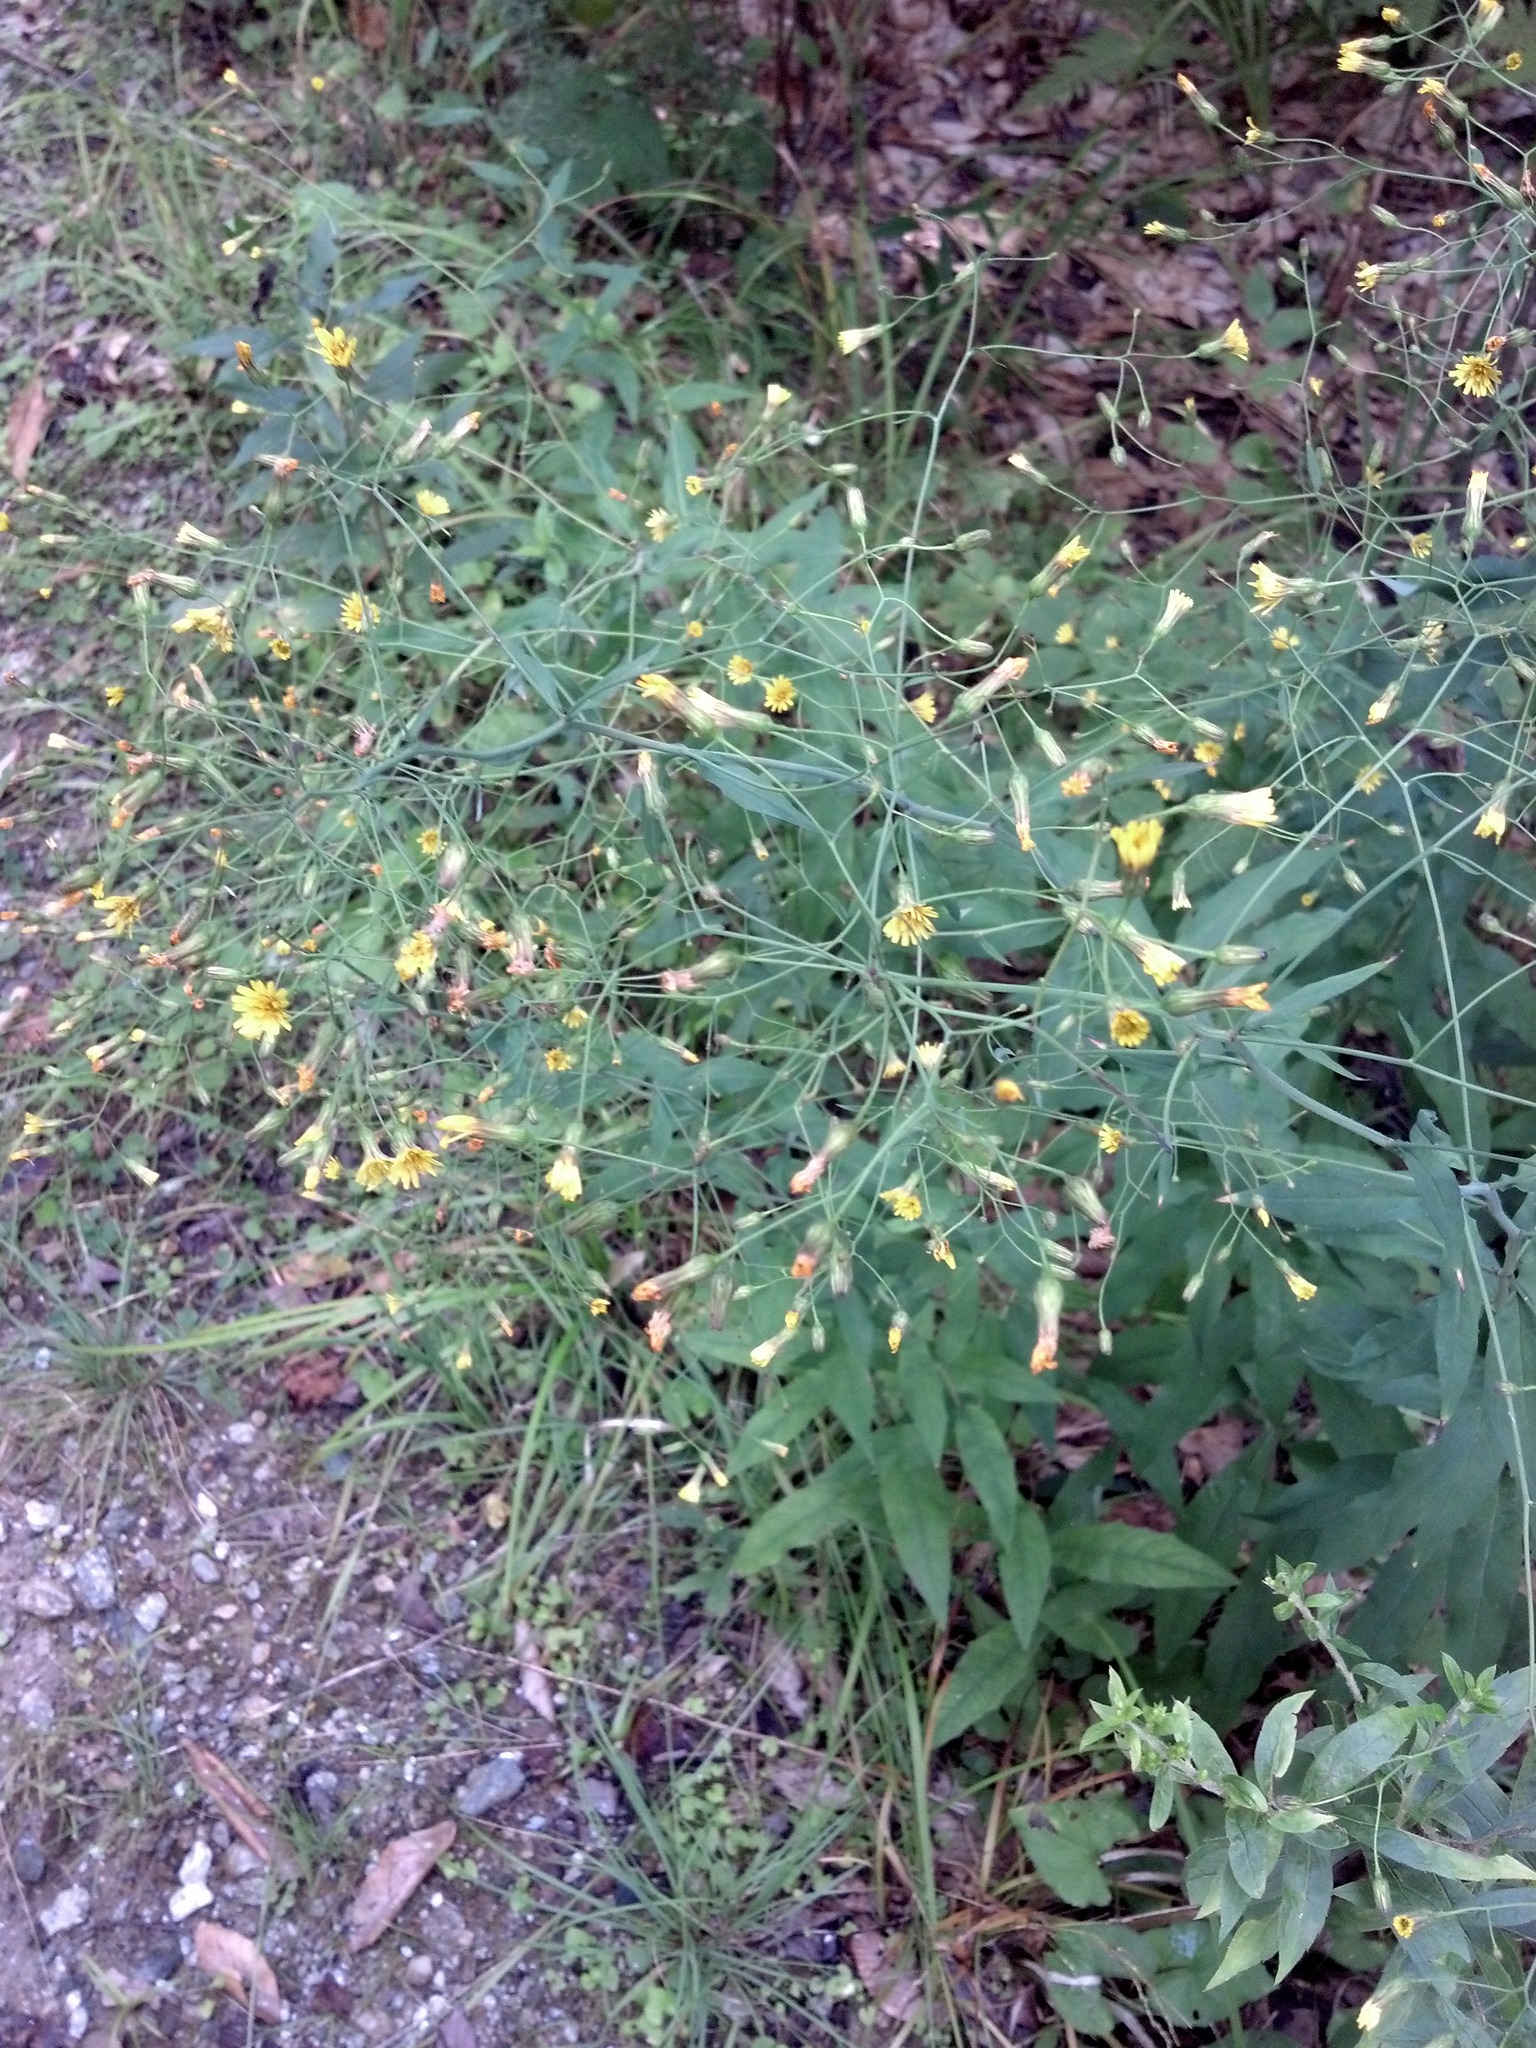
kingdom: Plantae
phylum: Tracheophyta
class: Magnoliopsida
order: Asterales
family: Asteraceae
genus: Lapsana
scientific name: Lapsana communis
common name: Nipplewort
